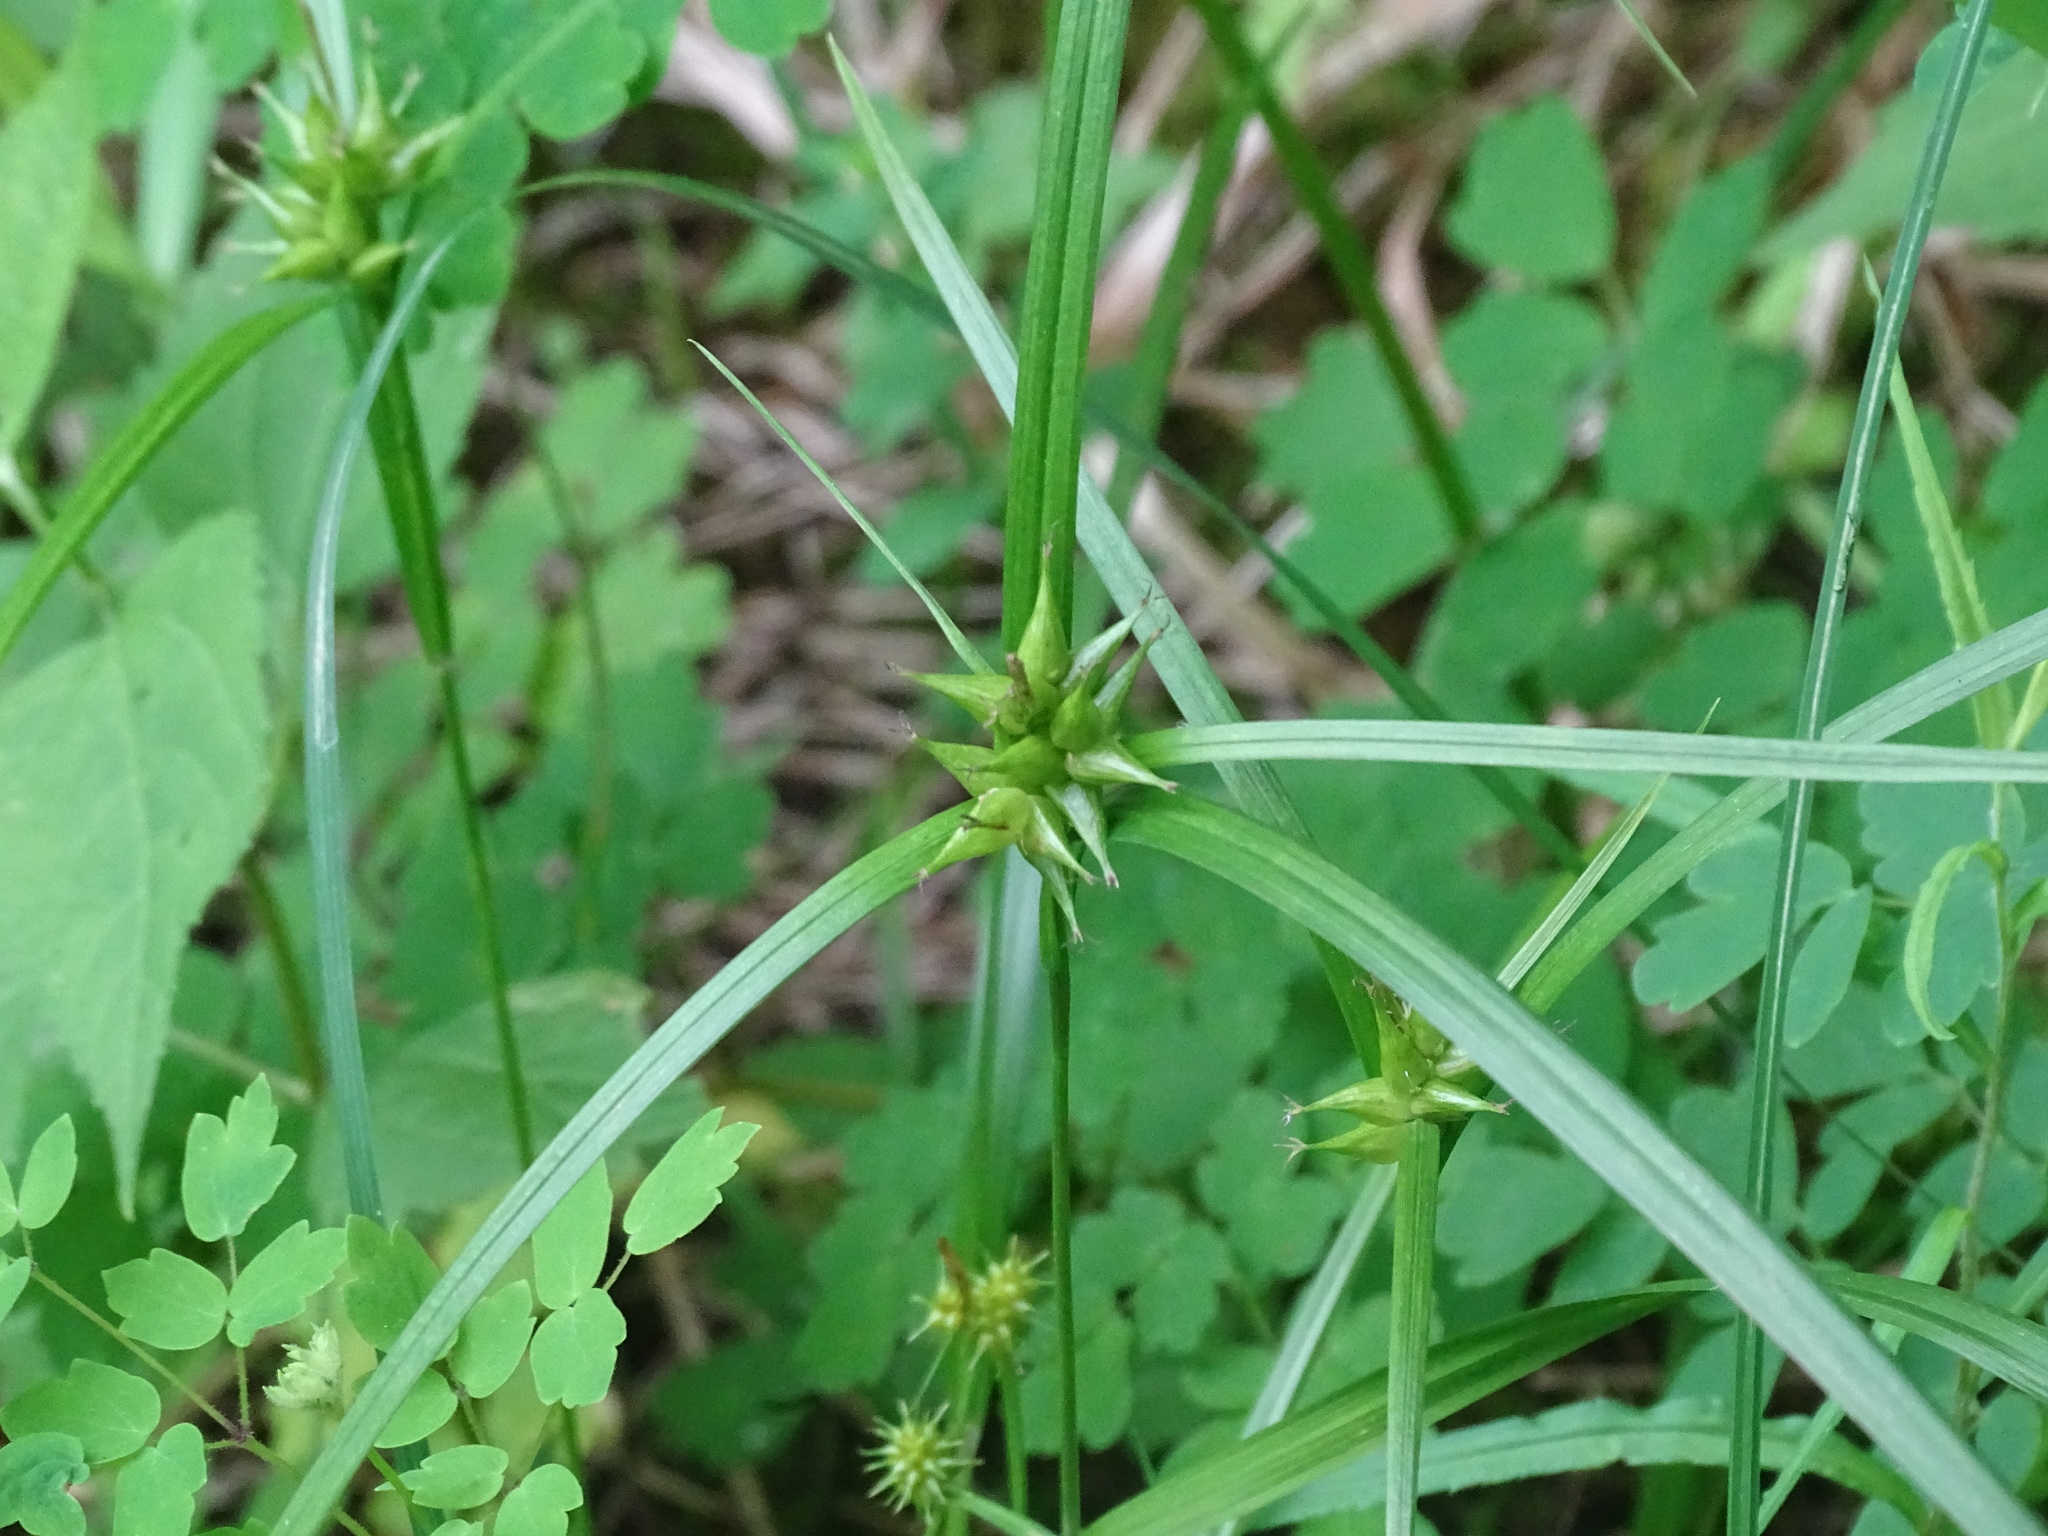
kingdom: Plantae
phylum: Tracheophyta
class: Liliopsida
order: Poales
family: Cyperaceae
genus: Carex
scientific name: Carex intumescens
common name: Greater bladder sedge
